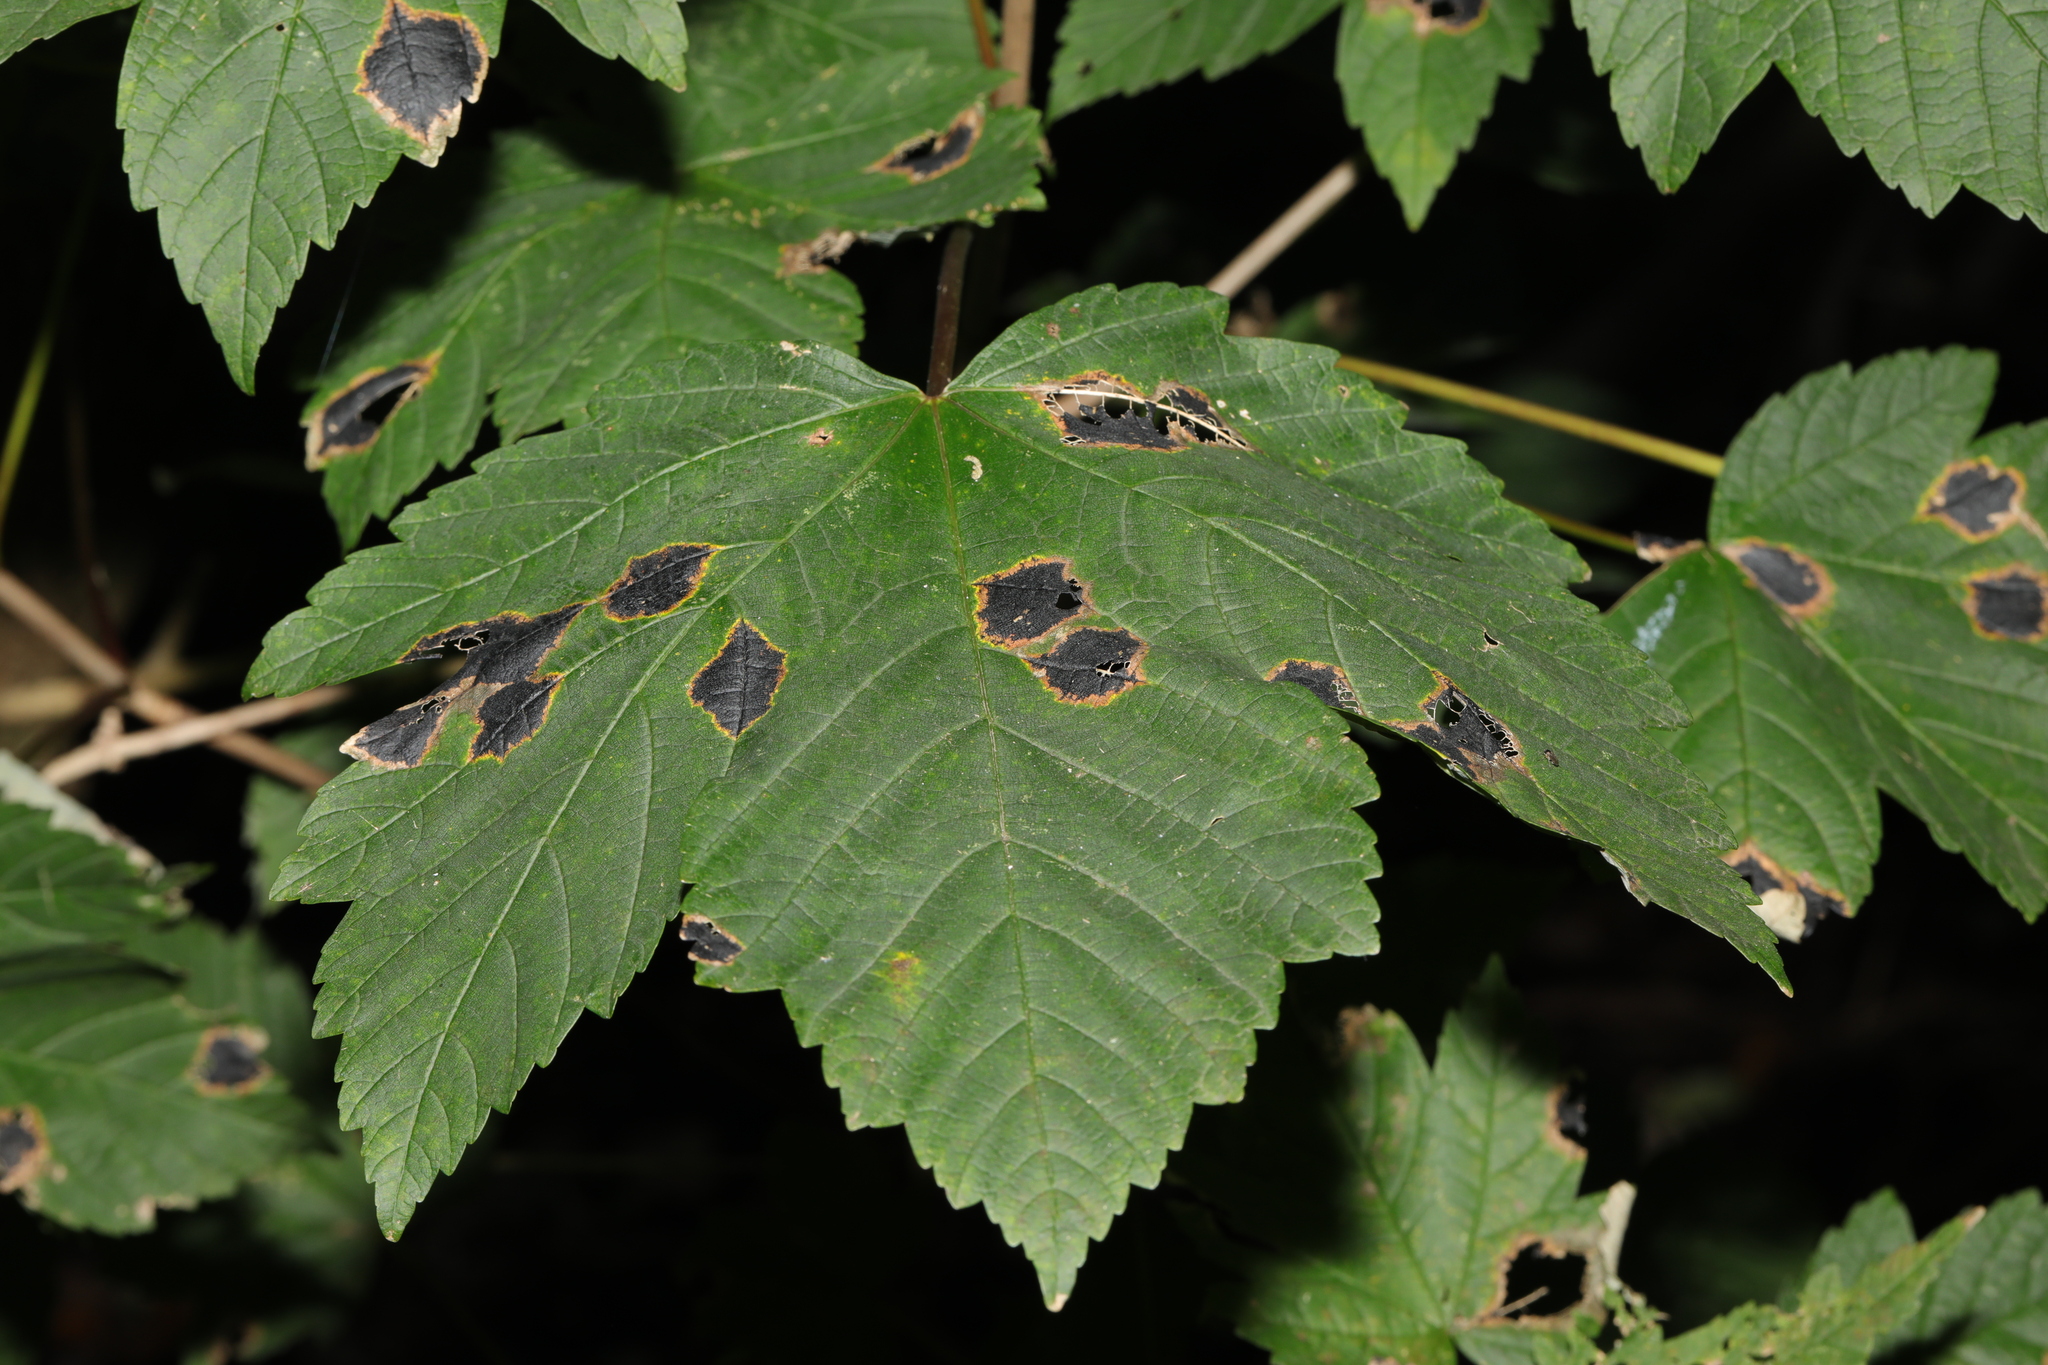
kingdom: Plantae
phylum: Tracheophyta
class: Magnoliopsida
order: Sapindales
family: Sapindaceae
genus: Acer
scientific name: Acer pseudoplatanus
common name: Sycamore
